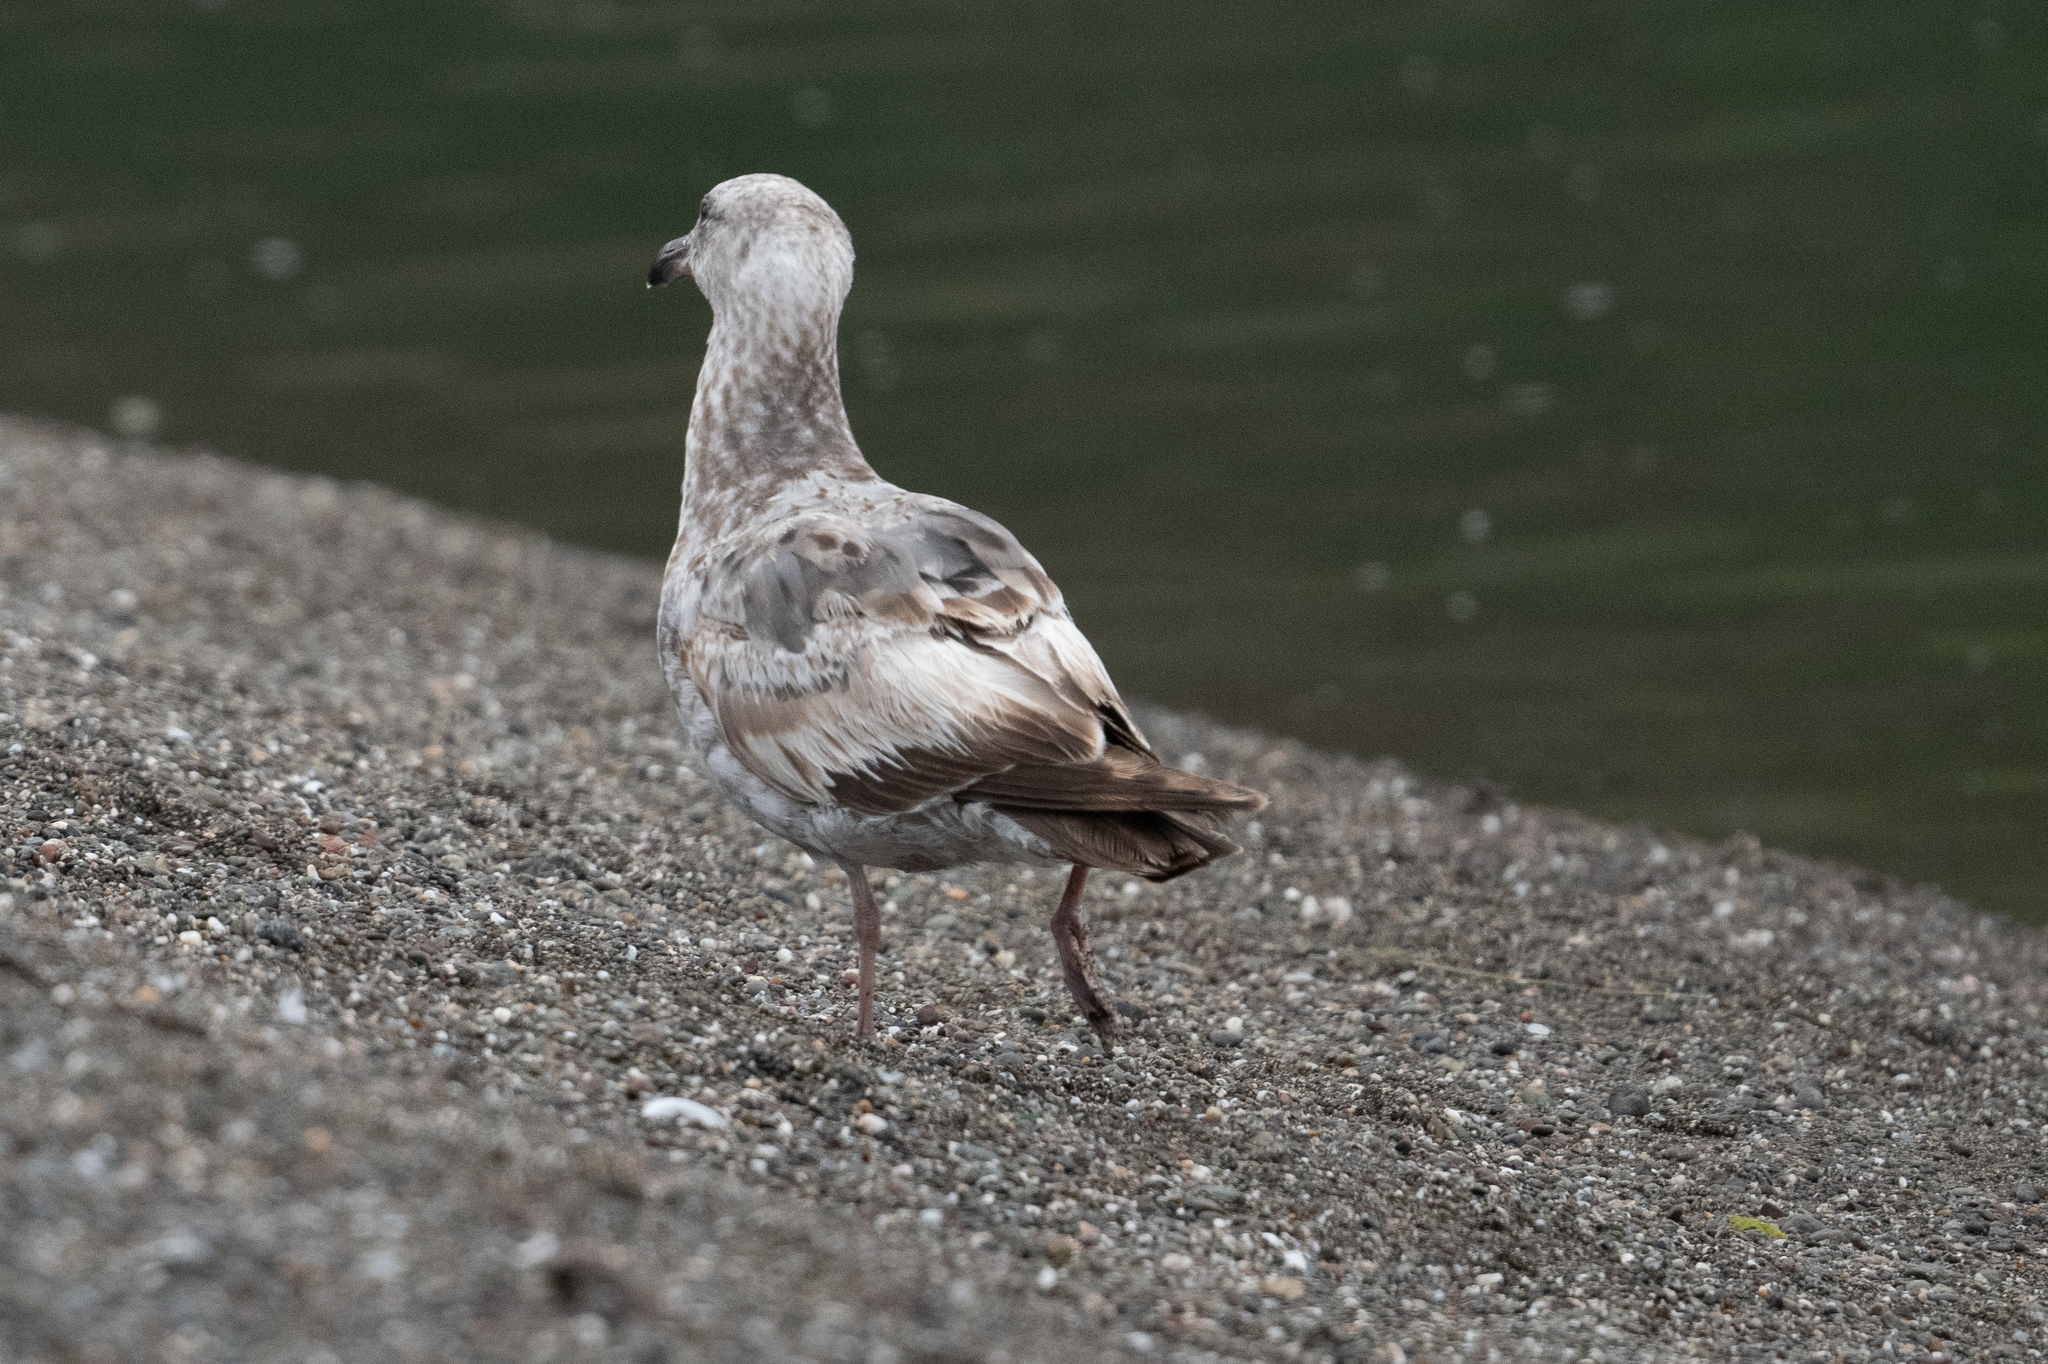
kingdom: Animalia
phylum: Chordata
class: Aves
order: Charadriiformes
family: Laridae
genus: Larus
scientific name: Larus occidentalis
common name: Western gull
